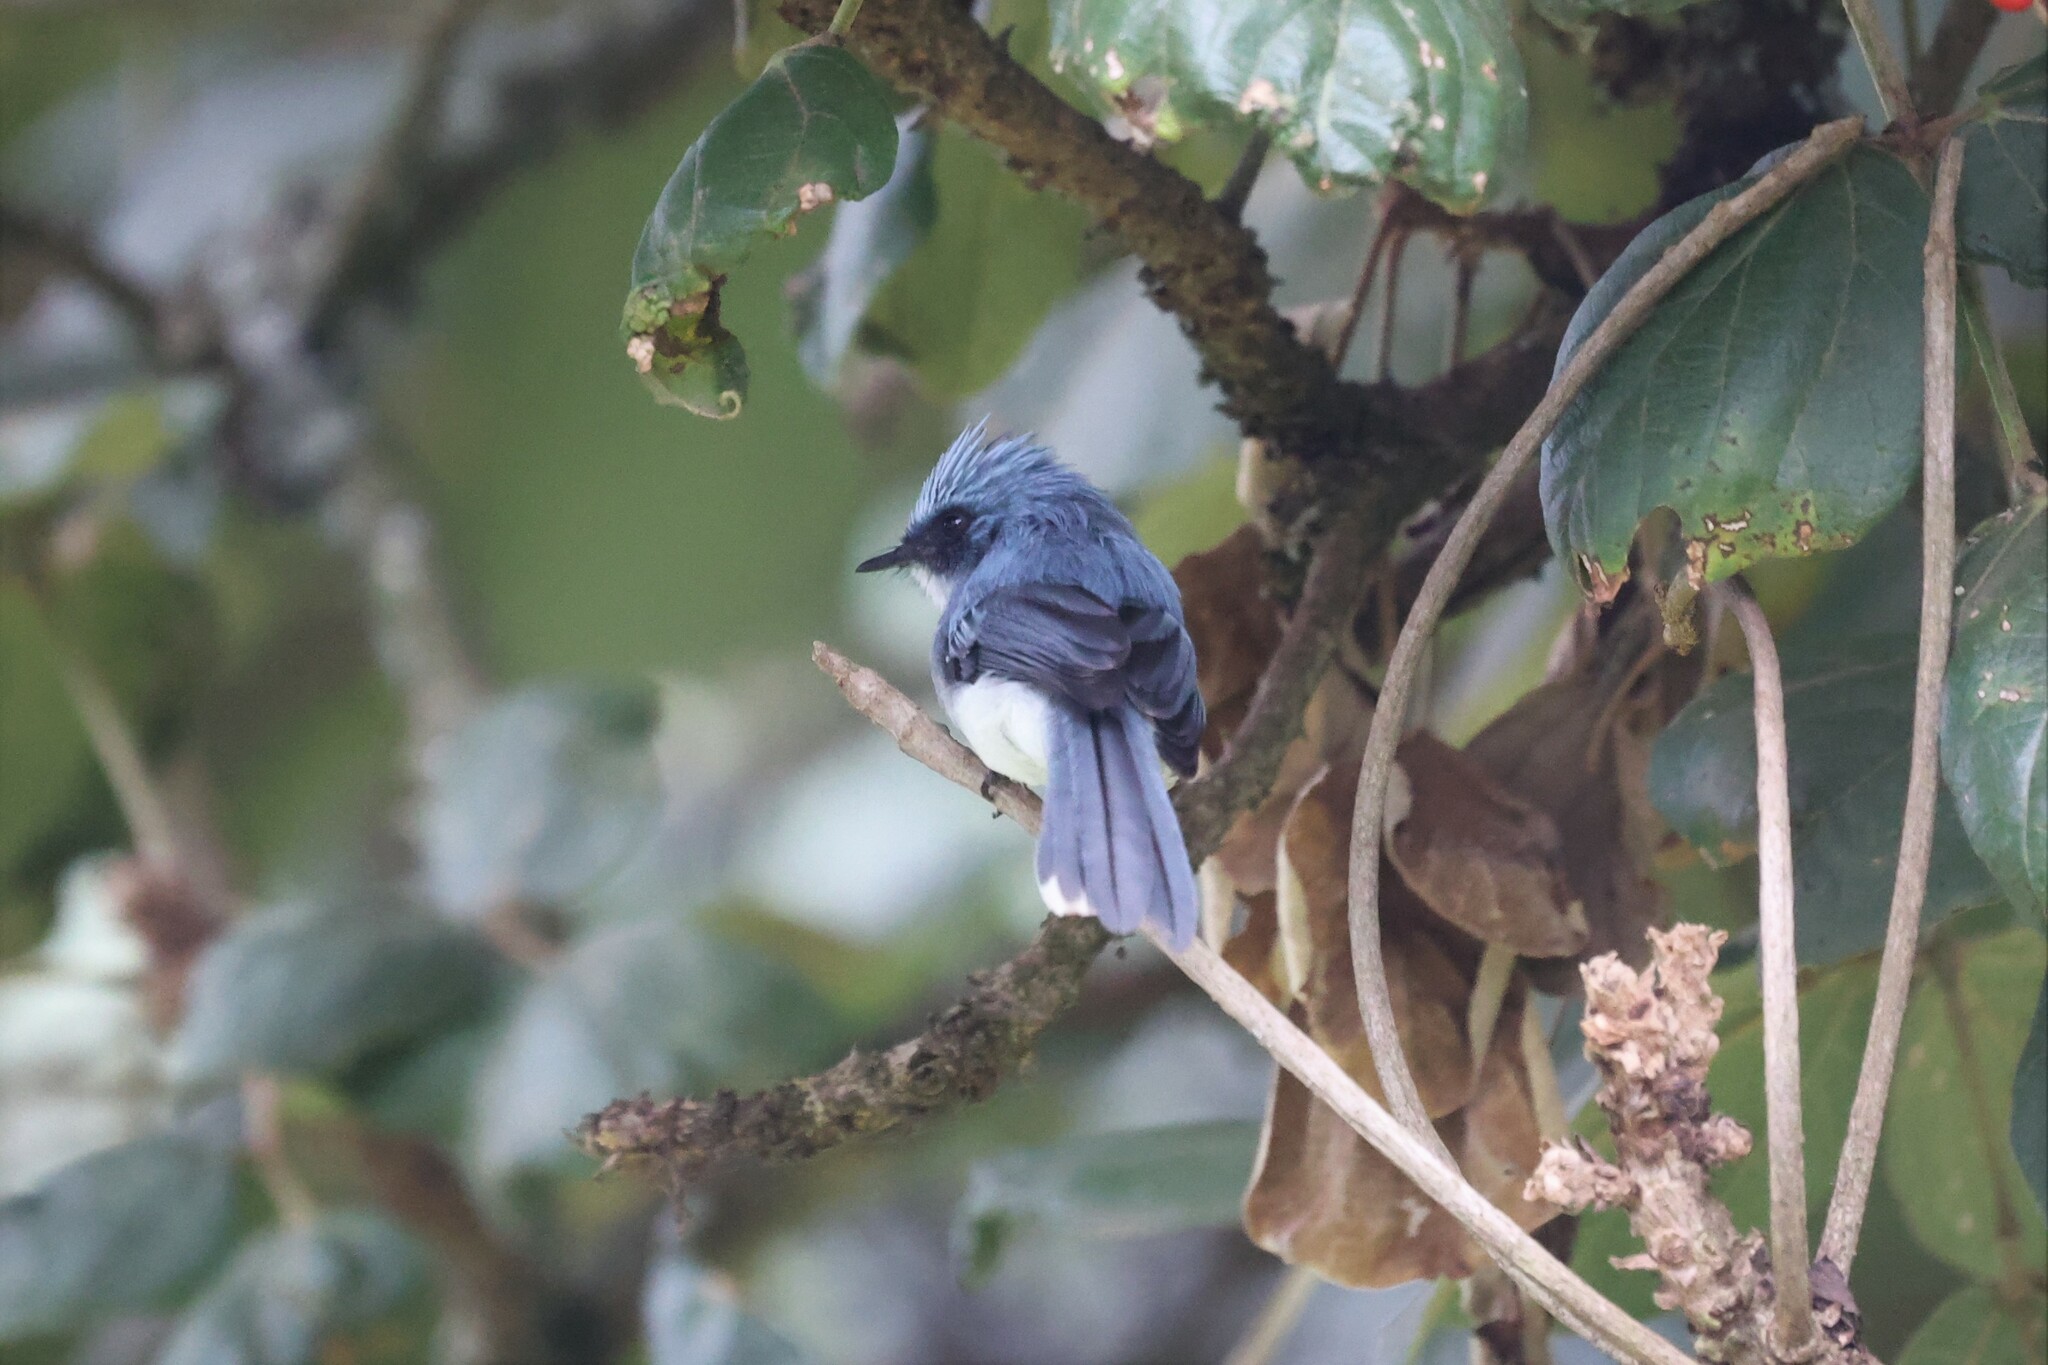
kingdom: Animalia
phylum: Chordata
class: Aves
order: Passeriformes
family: Stenostiridae
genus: Elminia
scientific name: Elminia albicauda
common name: White-tailed blue flycatcher
